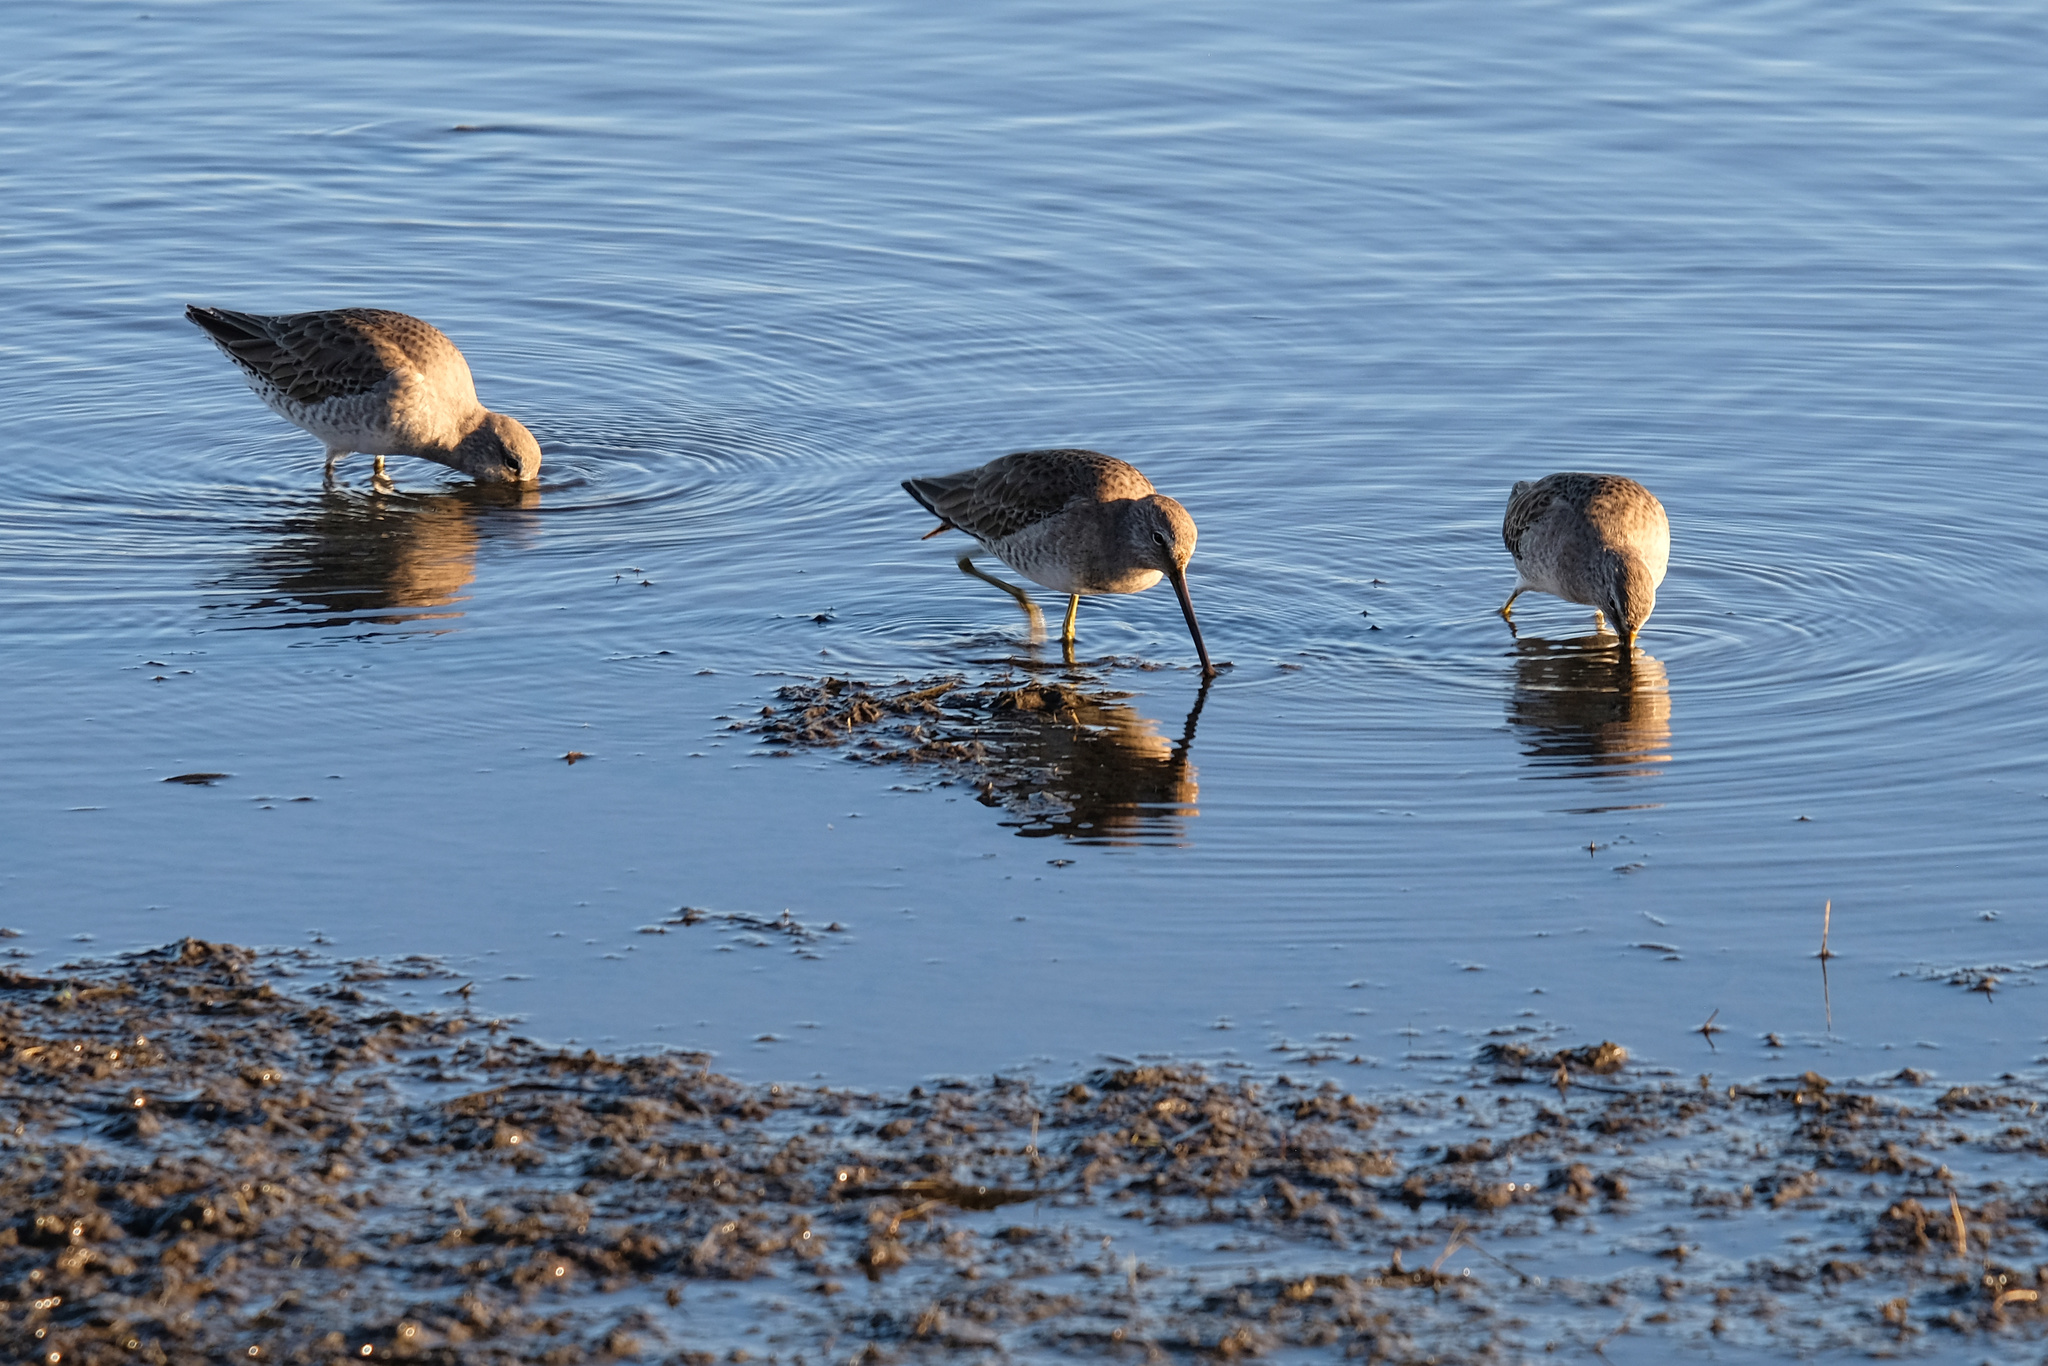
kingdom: Animalia
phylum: Chordata
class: Aves
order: Charadriiformes
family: Scolopacidae
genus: Limnodromus
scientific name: Limnodromus scolopaceus
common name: Long-billed dowitcher
